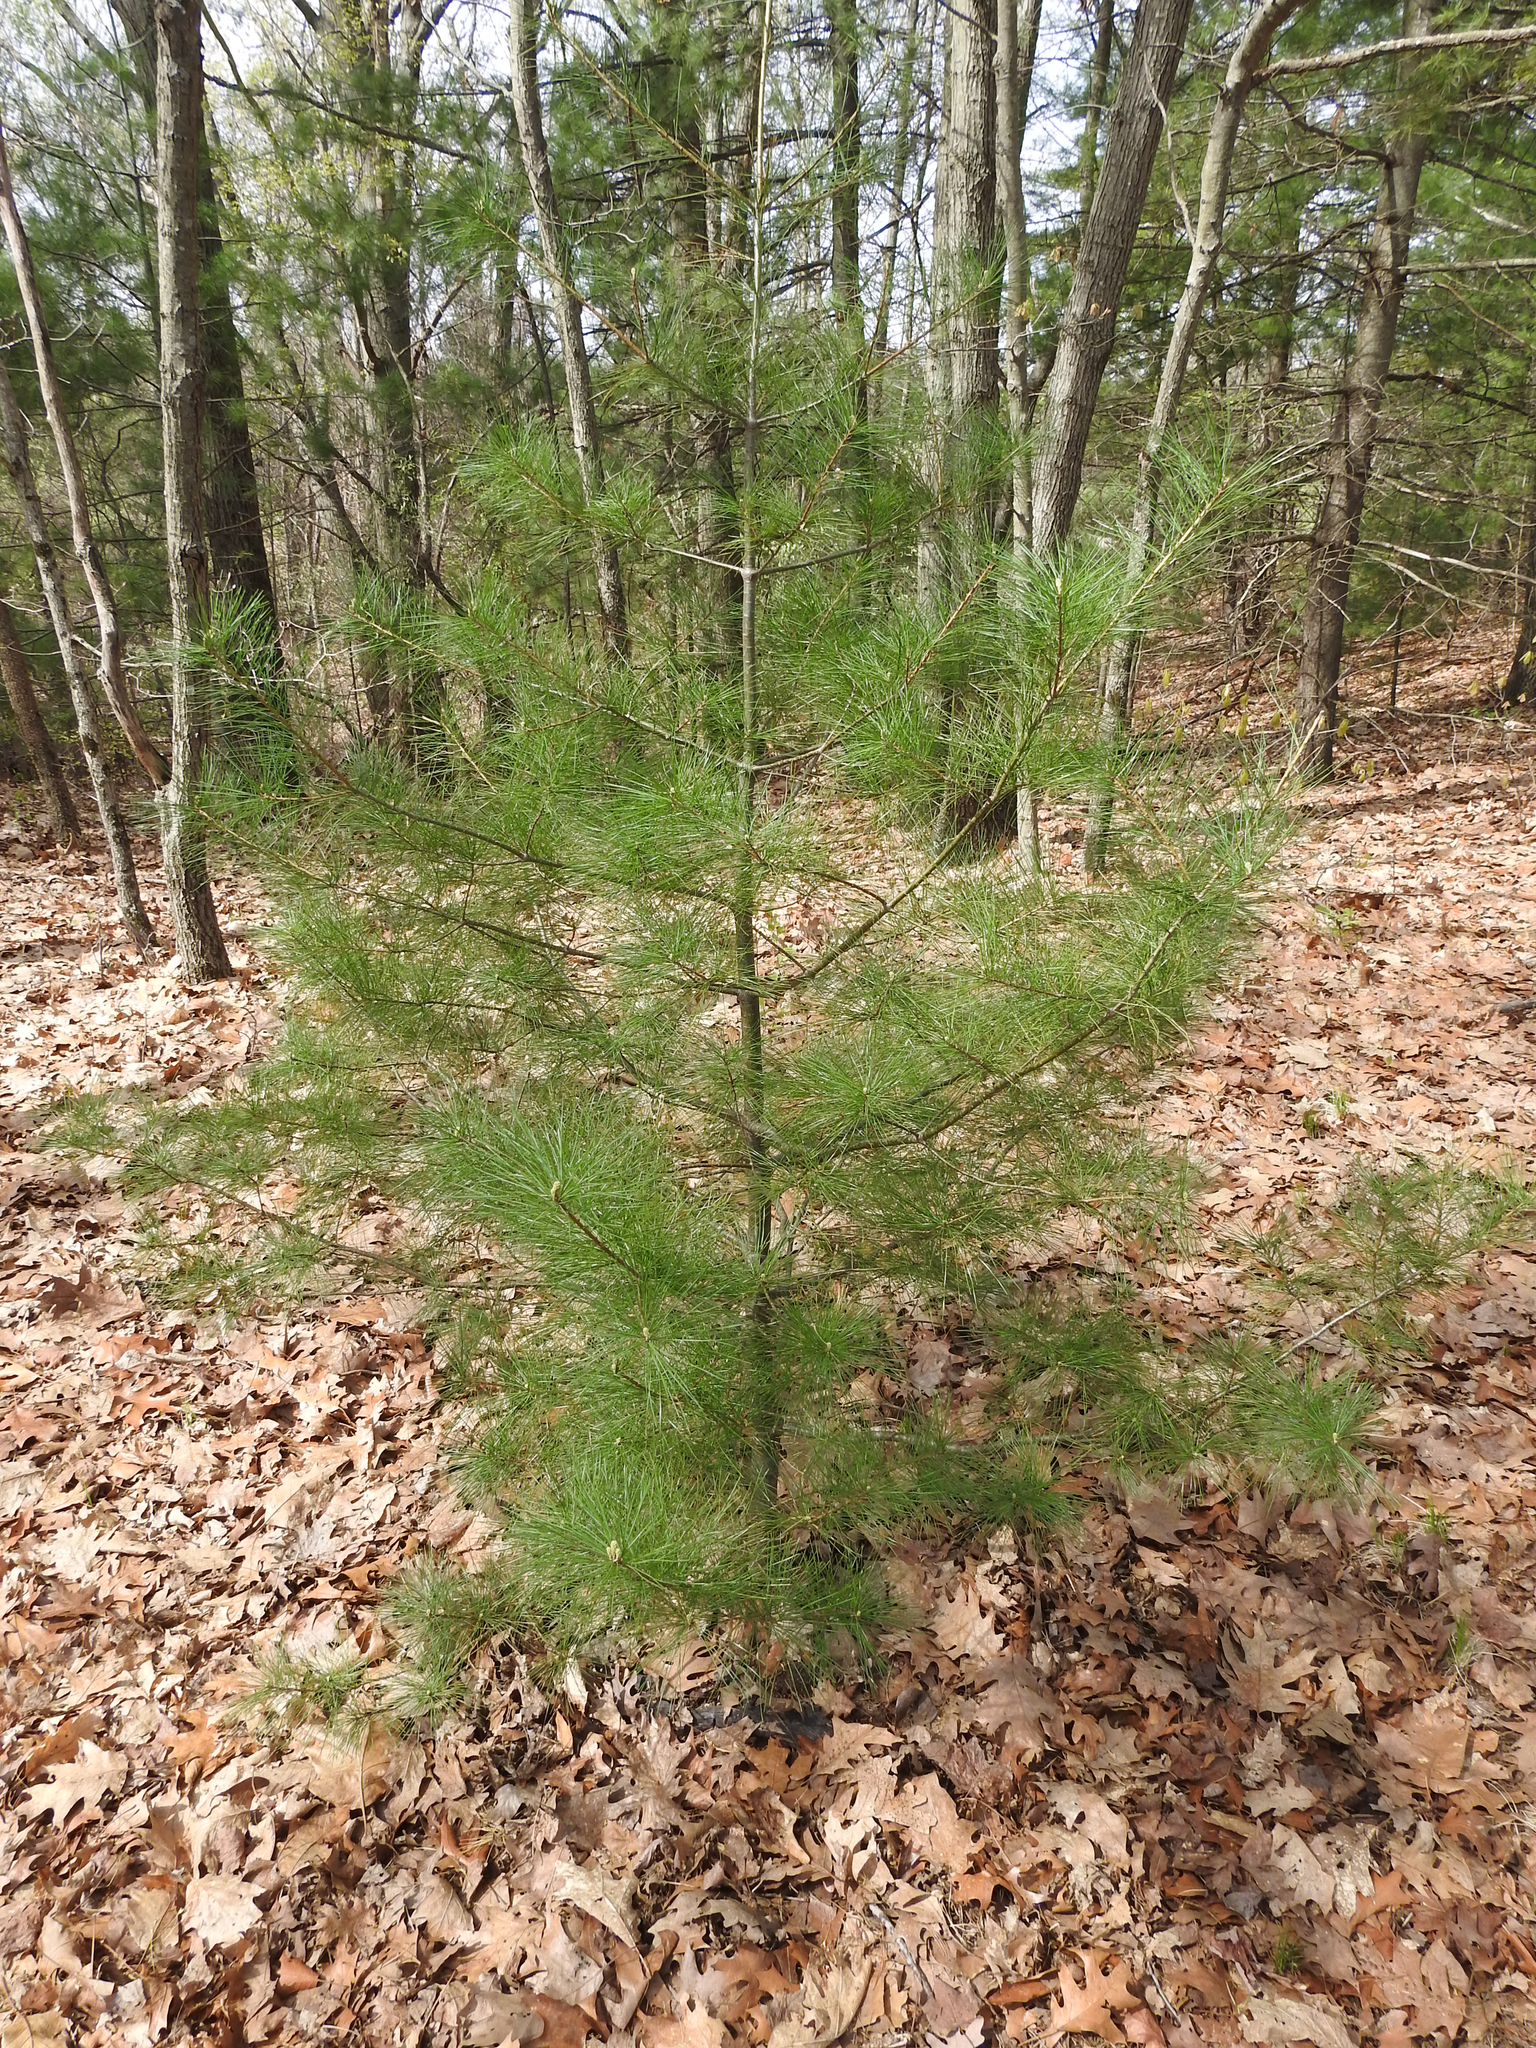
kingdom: Plantae
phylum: Tracheophyta
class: Pinopsida
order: Pinales
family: Pinaceae
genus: Pinus
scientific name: Pinus strobus
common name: Weymouth pine
